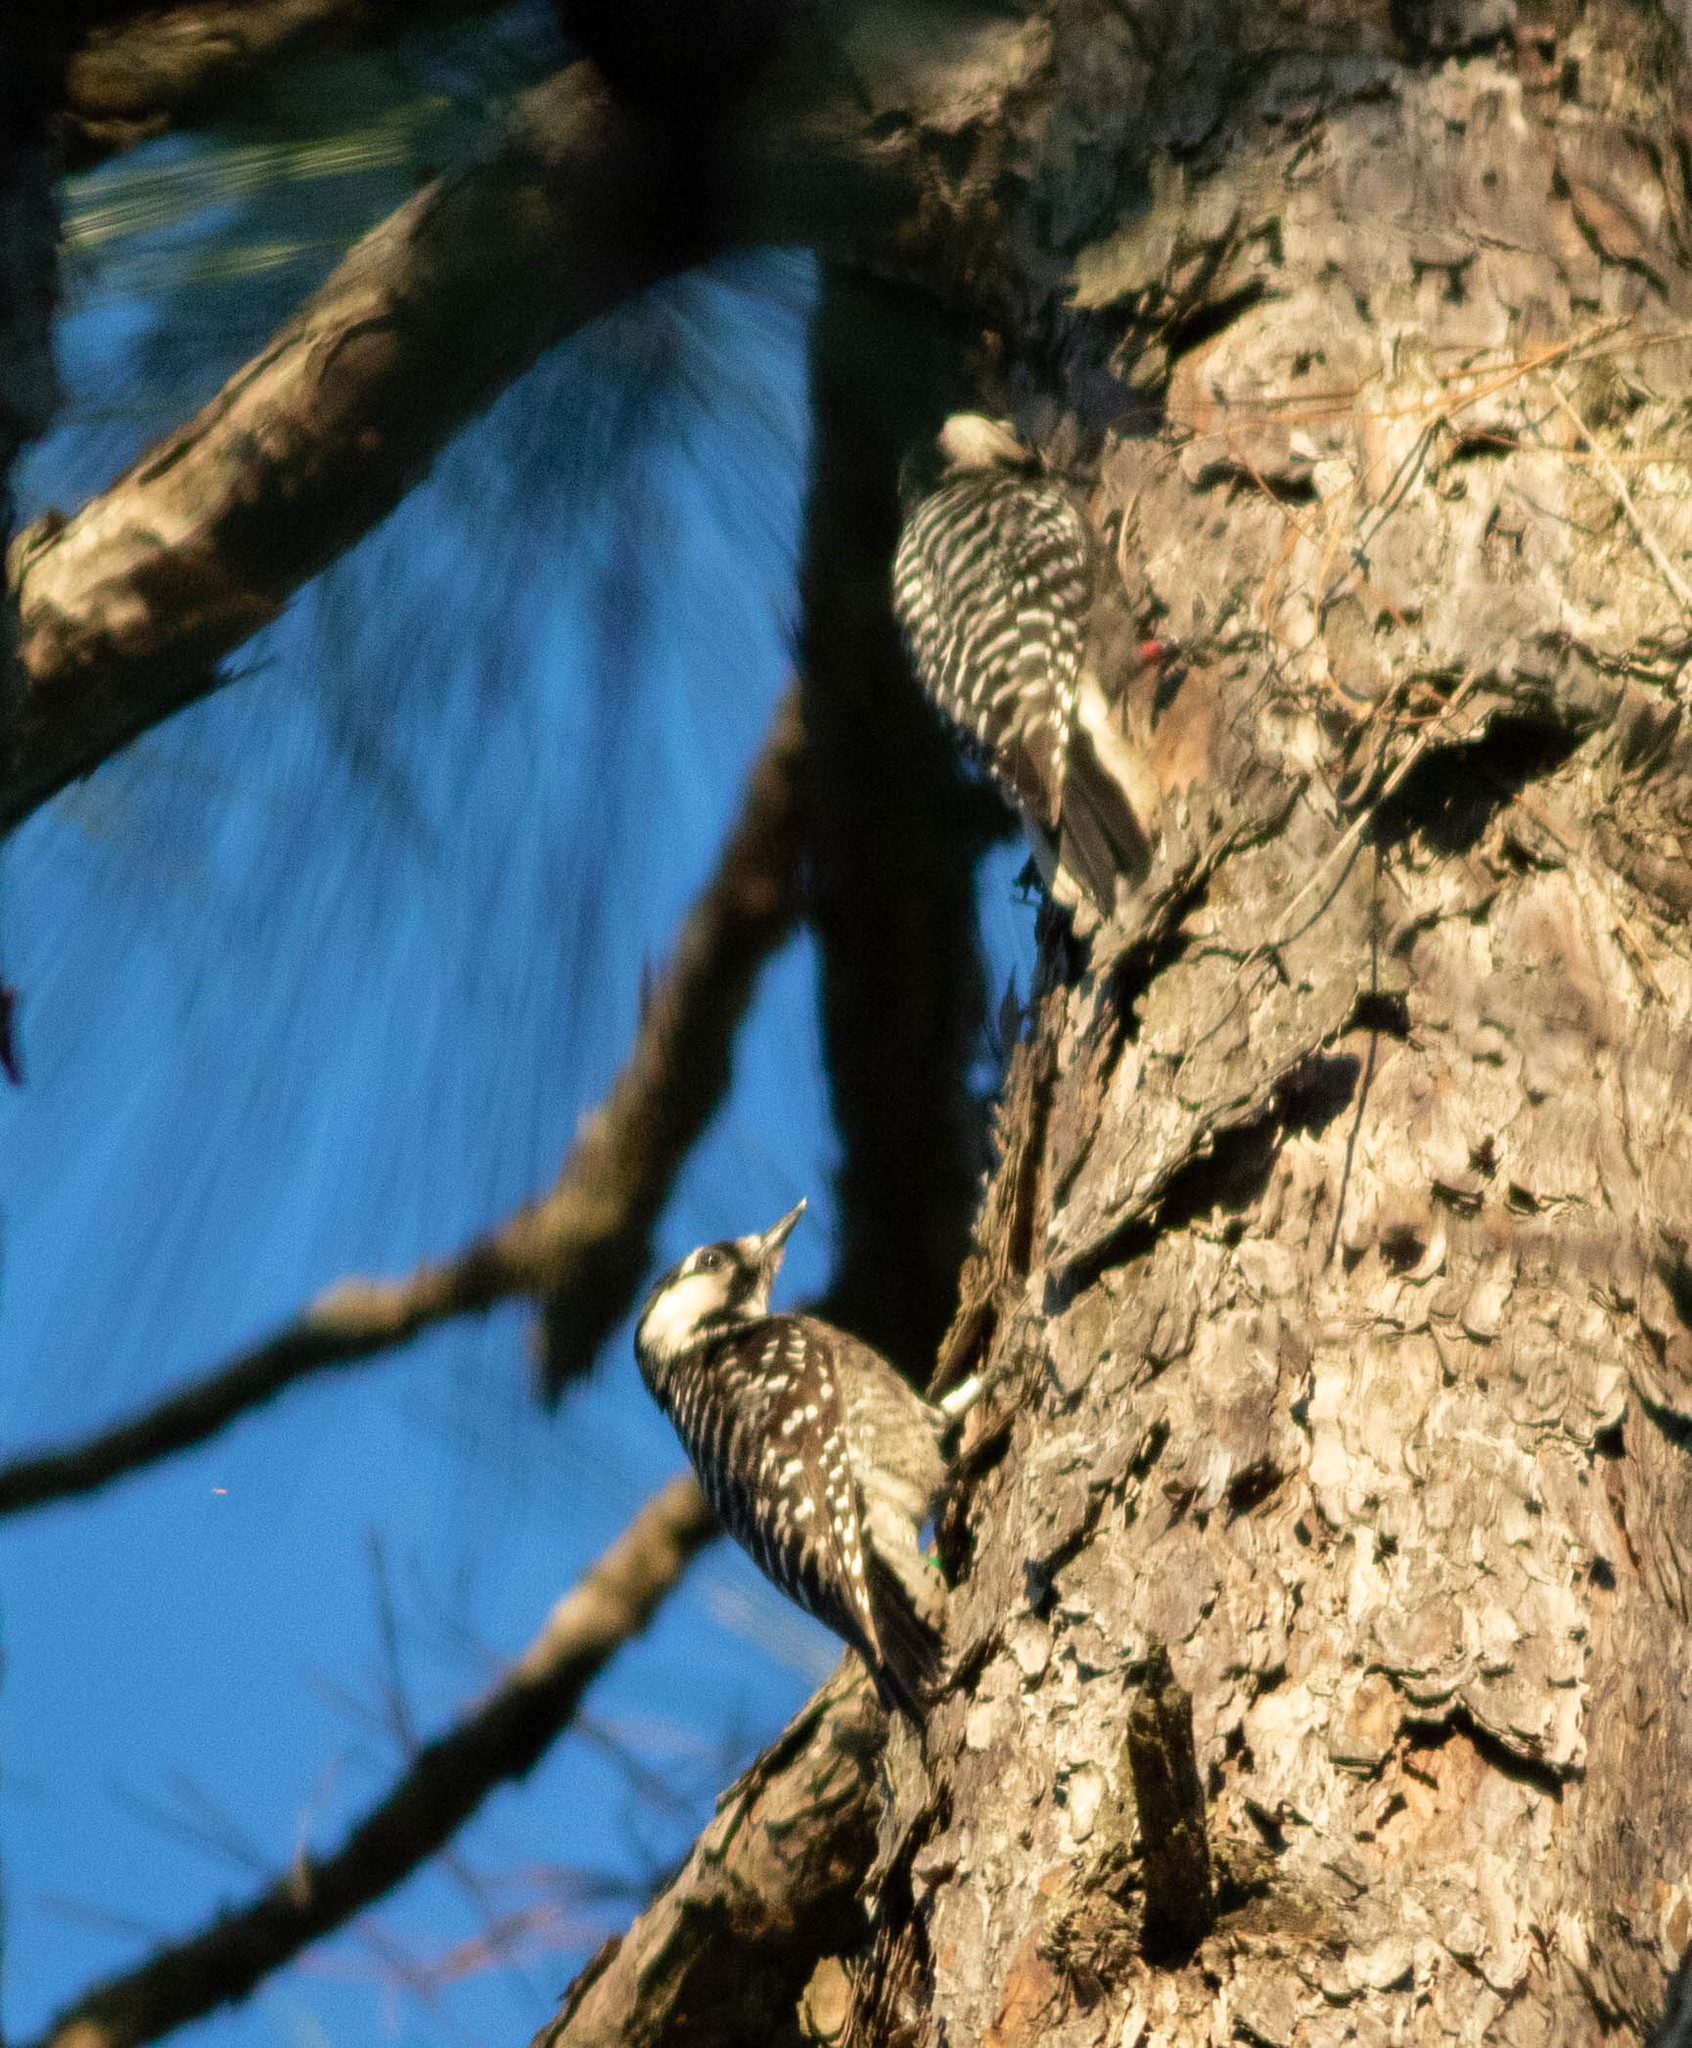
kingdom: Animalia
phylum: Chordata
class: Aves
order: Piciformes
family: Picidae
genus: Leuconotopicus
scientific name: Leuconotopicus borealis
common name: Red-cockaded woodpecker
